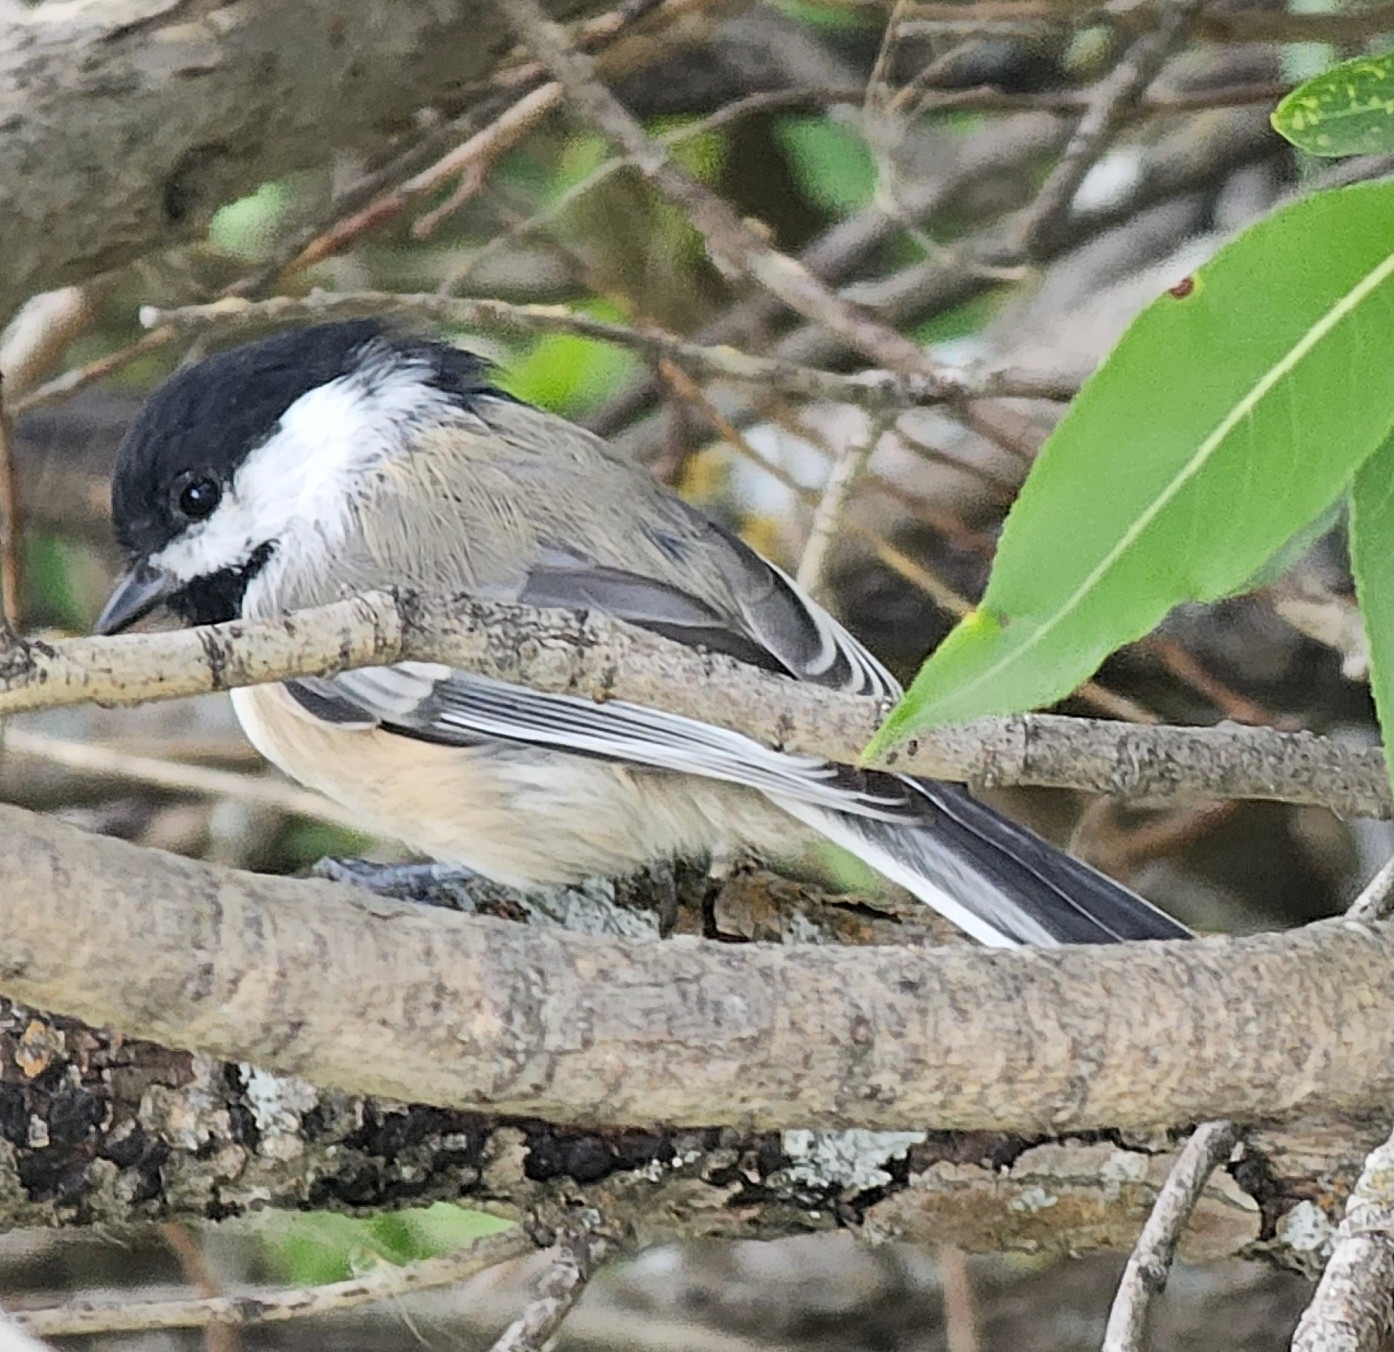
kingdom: Animalia
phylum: Chordata
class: Aves
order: Passeriformes
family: Paridae
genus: Poecile
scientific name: Poecile atricapillus
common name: Black-capped chickadee
